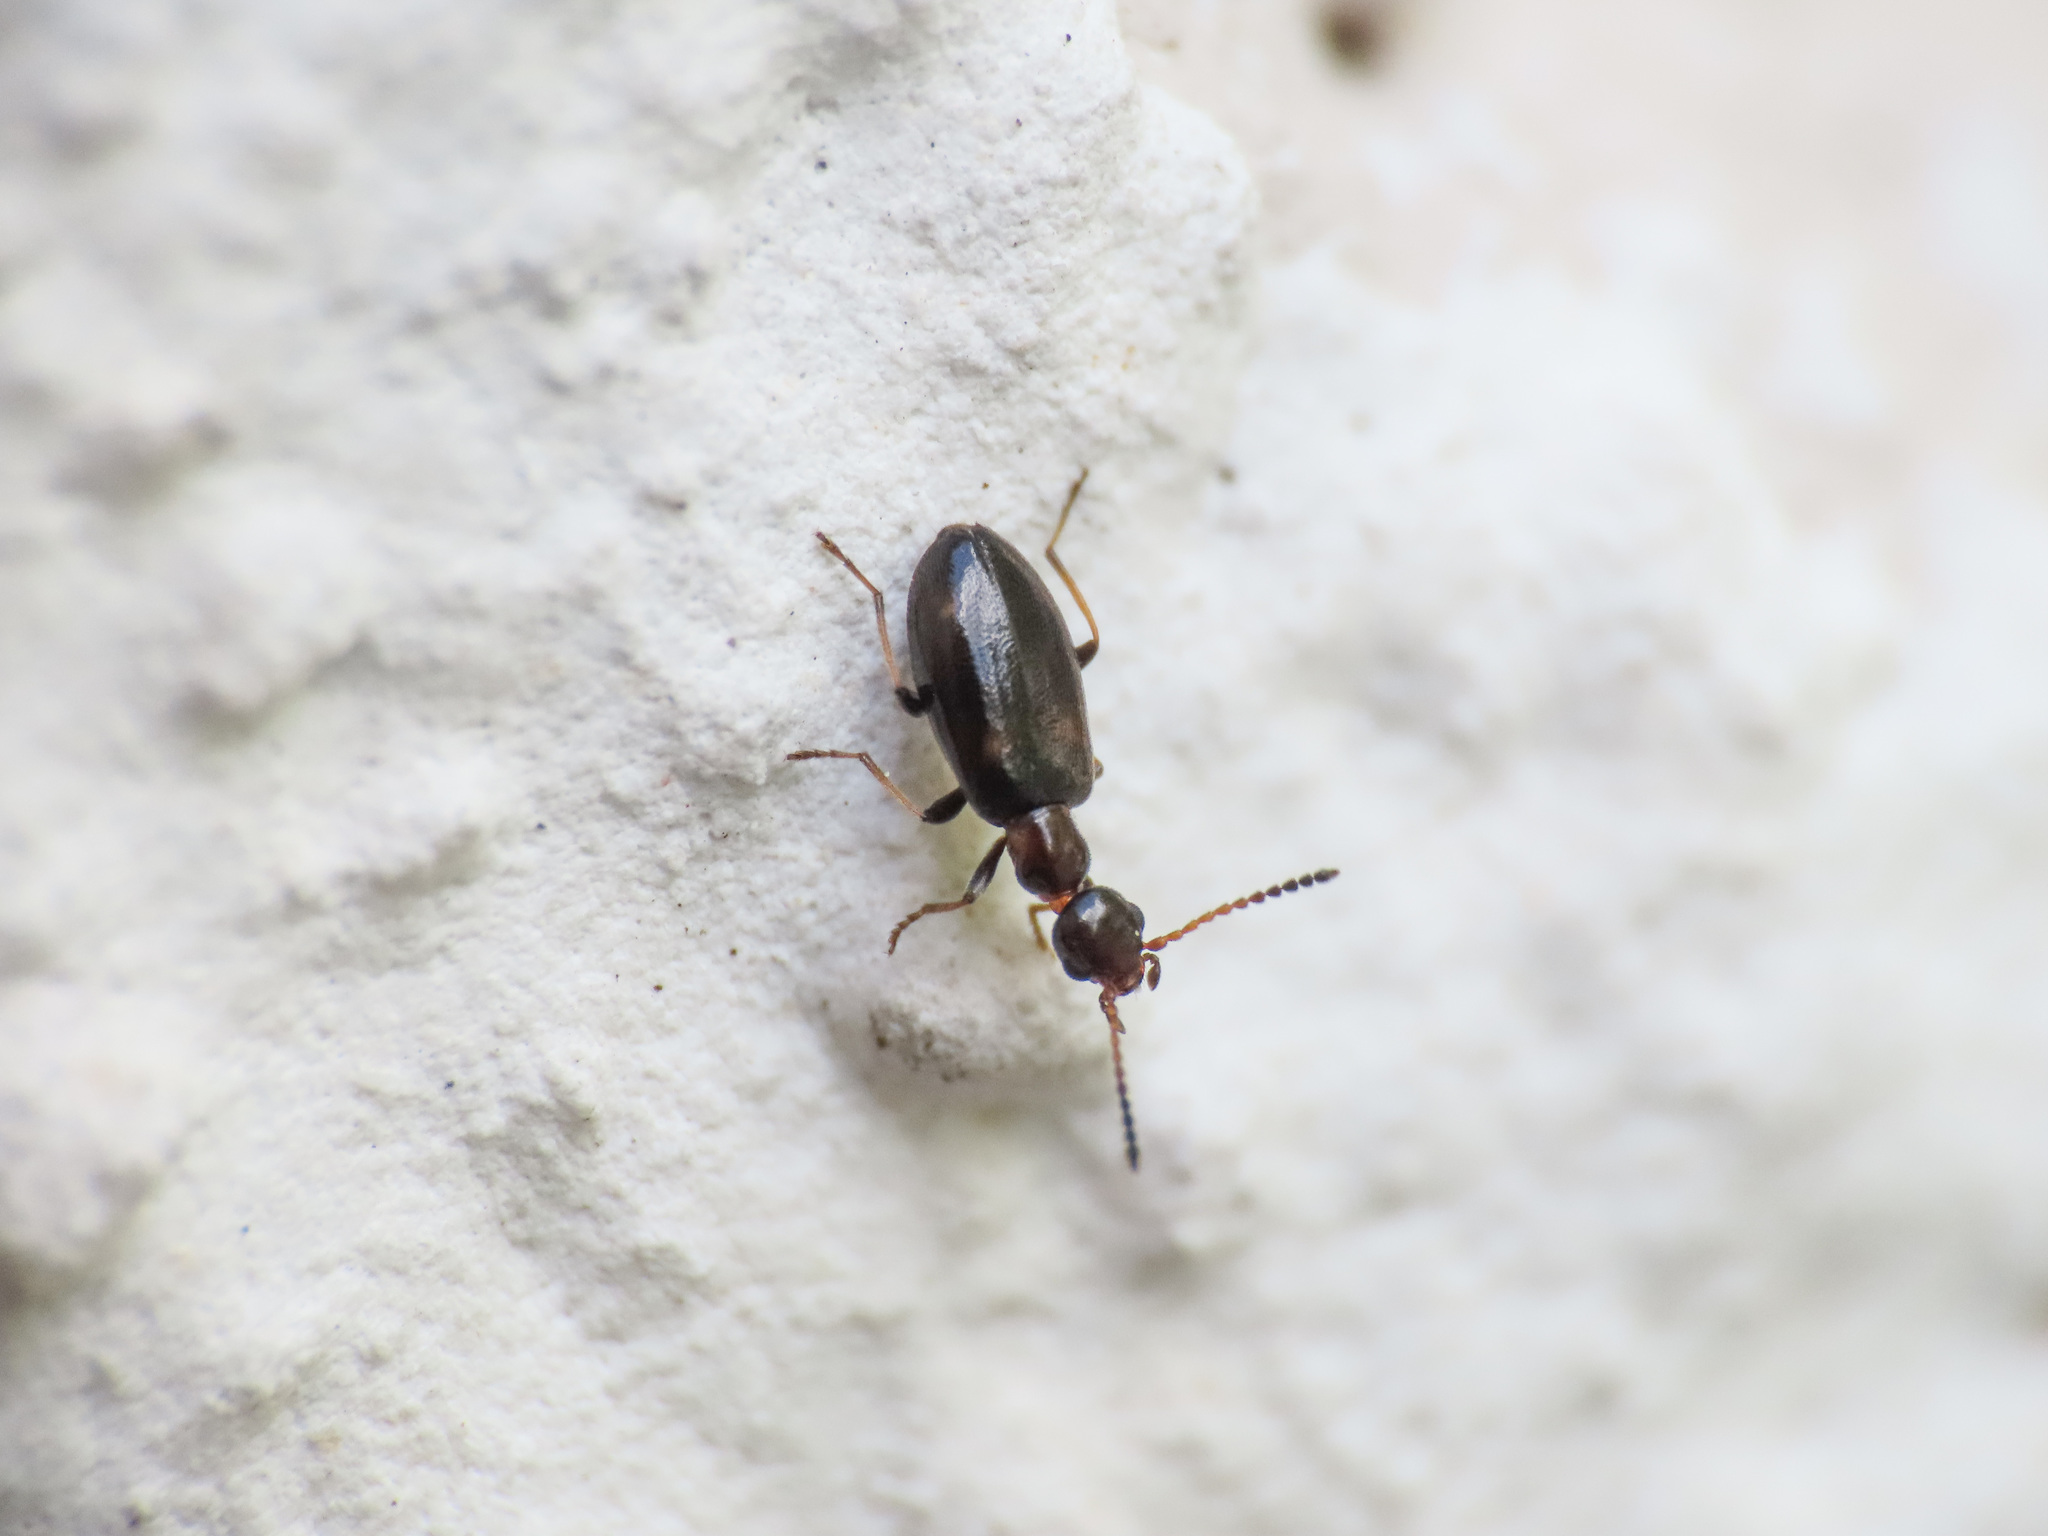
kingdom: Animalia
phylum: Arthropoda
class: Insecta
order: Coleoptera
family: Anthicidae
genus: Microhoria
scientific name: Microhoria terminata
